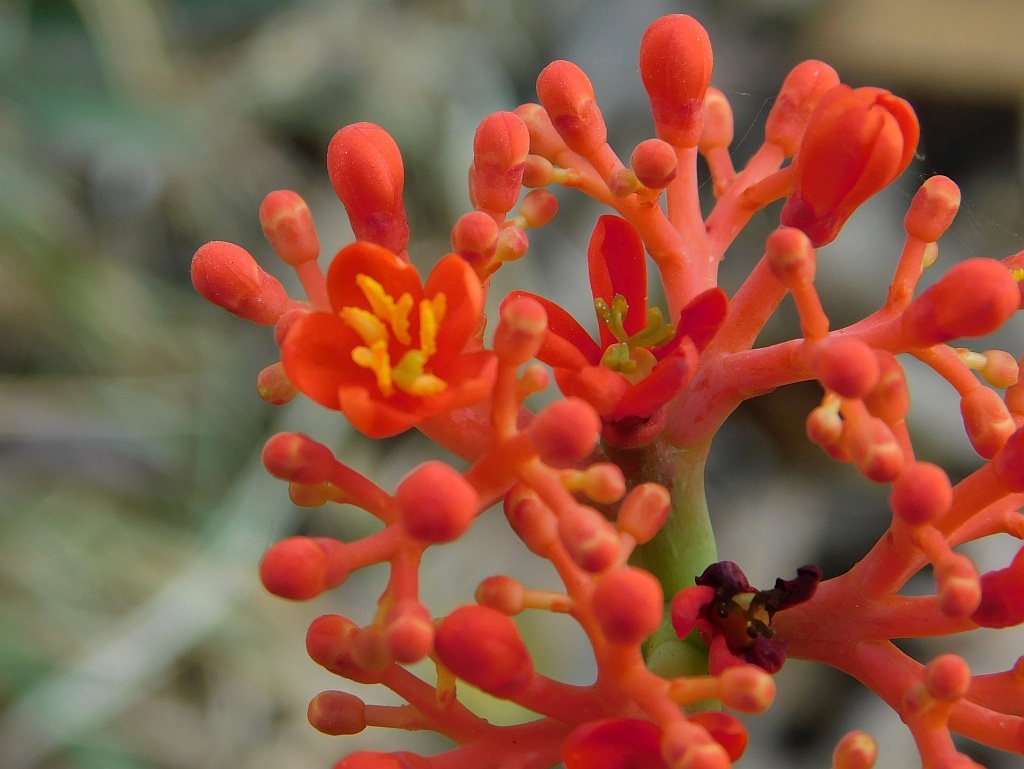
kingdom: Plantae
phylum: Tracheophyta
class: Magnoliopsida
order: Malpighiales
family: Euphorbiaceae
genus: Jatropha
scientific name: Jatropha podagrica
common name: Gout stalk
